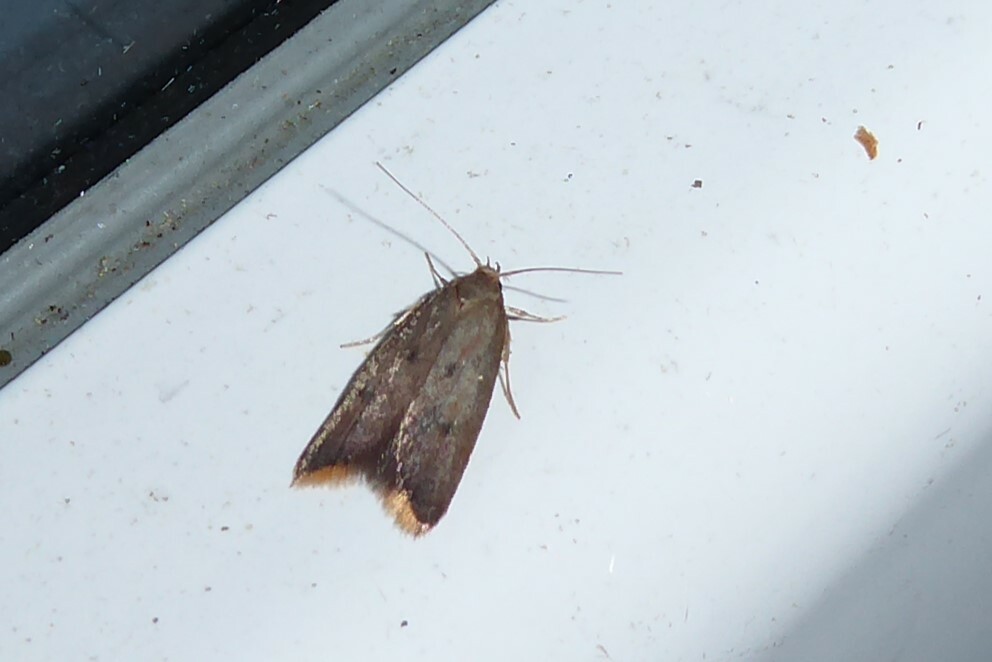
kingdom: Animalia
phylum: Arthropoda
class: Insecta
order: Lepidoptera
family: Oecophoridae
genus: Tachystola
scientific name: Tachystola acroxantha
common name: Ruddy streak
